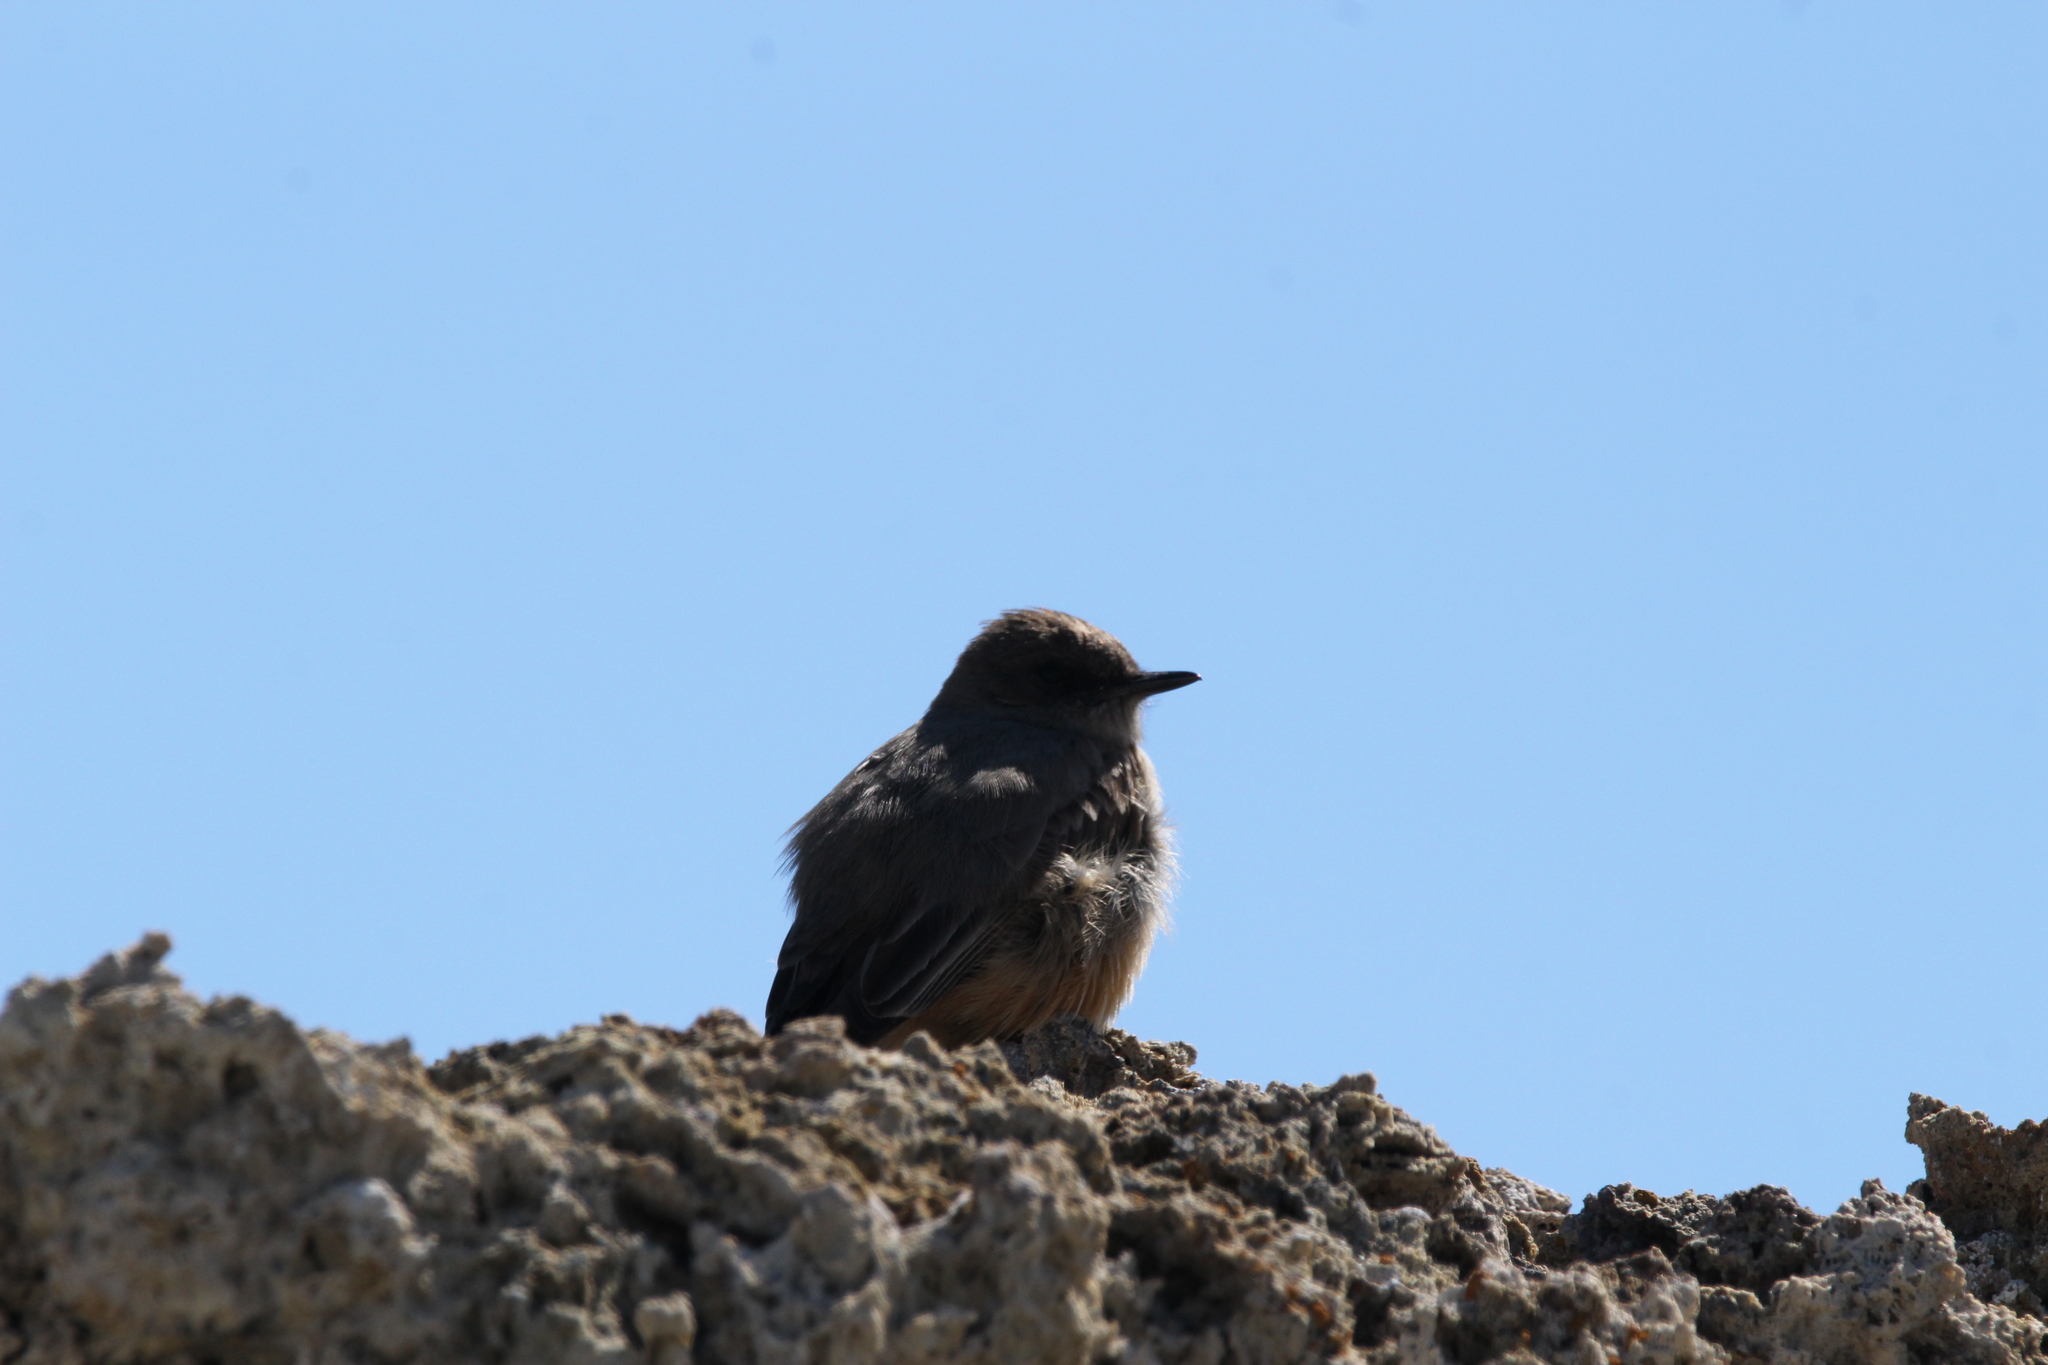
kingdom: Animalia
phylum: Chordata
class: Aves
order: Passeriformes
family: Tyrannidae
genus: Sayornis
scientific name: Sayornis saya
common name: Say's phoebe
